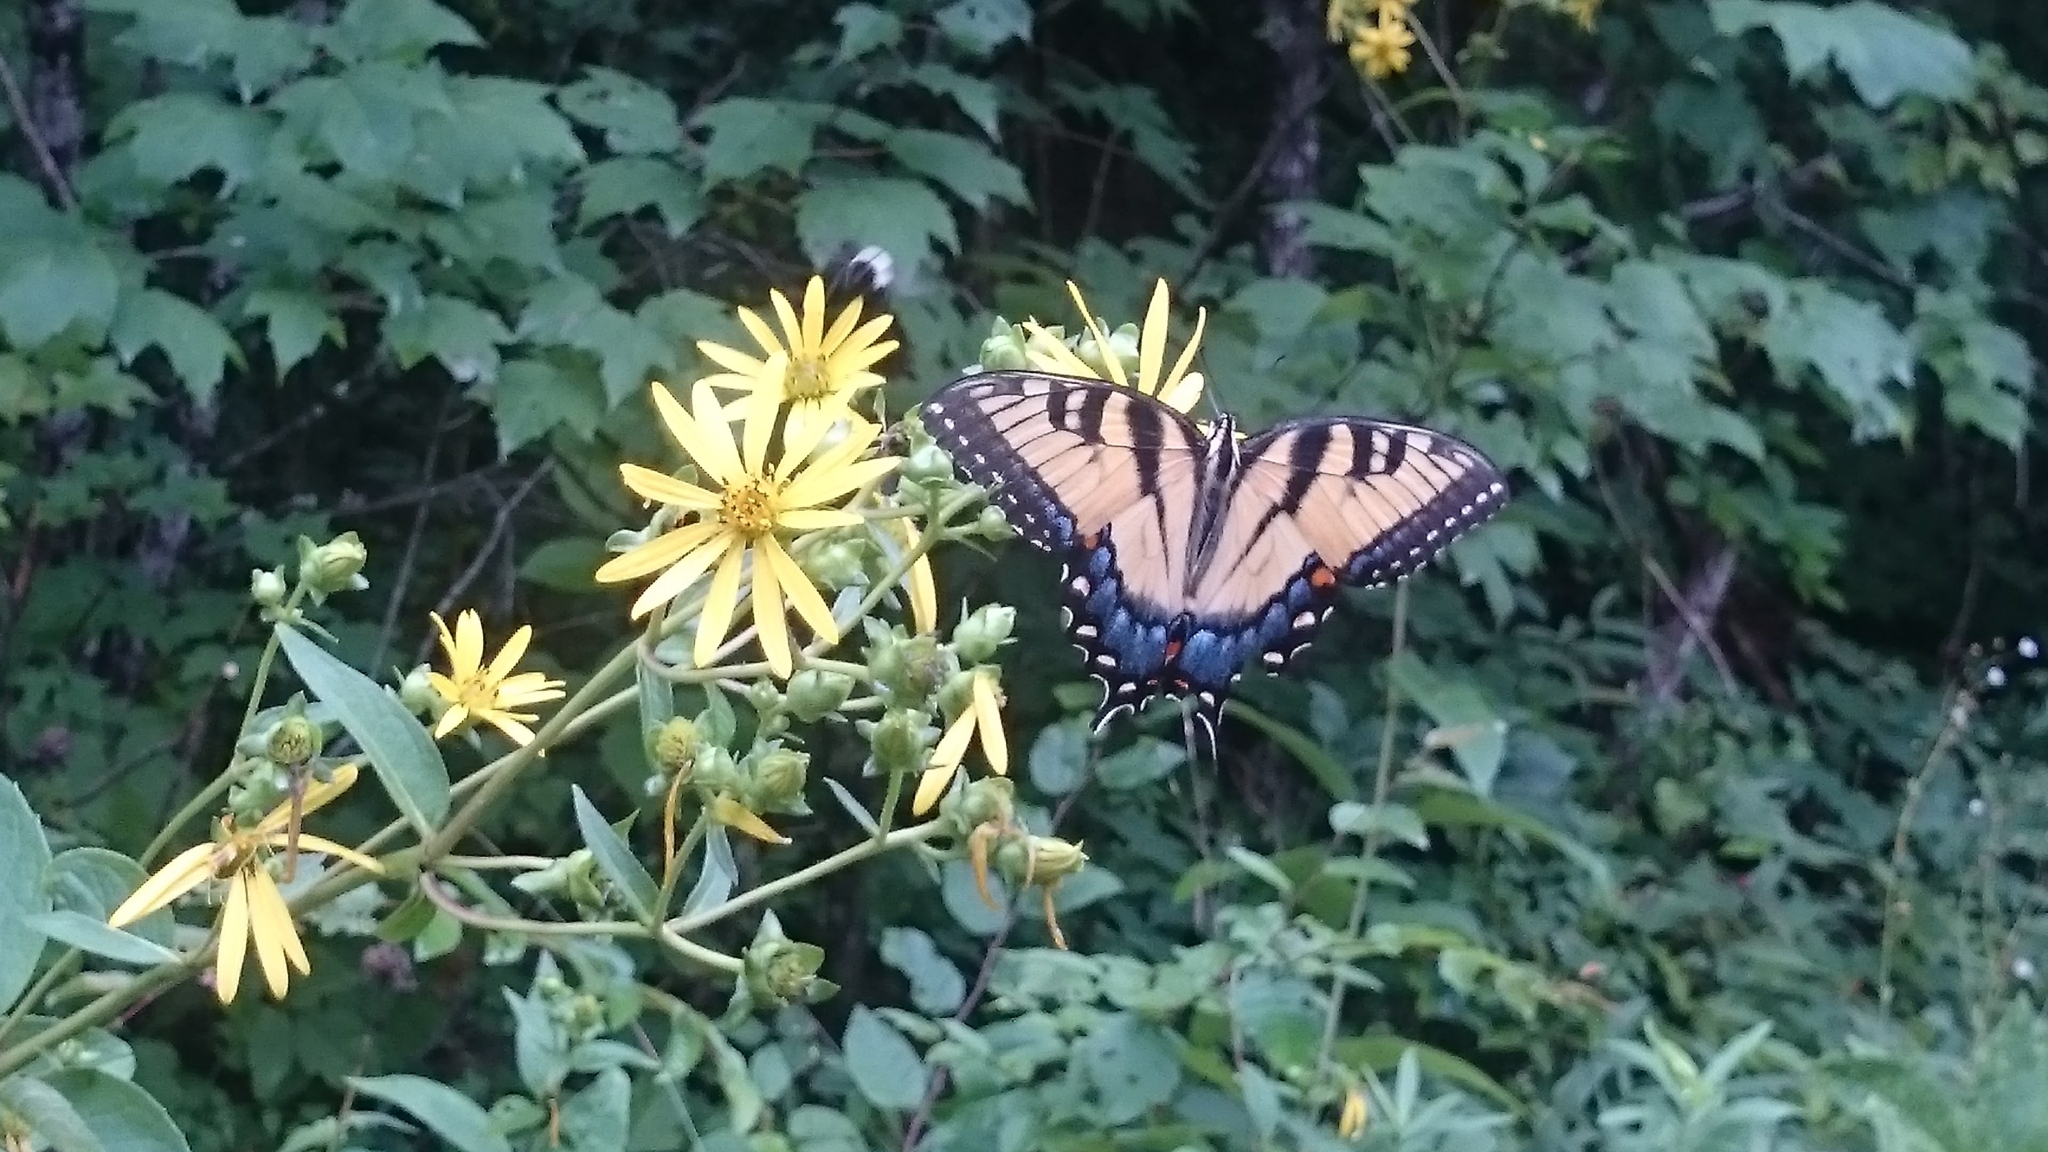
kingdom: Animalia
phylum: Arthropoda
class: Insecta
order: Lepidoptera
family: Papilionidae
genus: Papilio
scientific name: Papilio glaucus
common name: Tiger swallowtail
